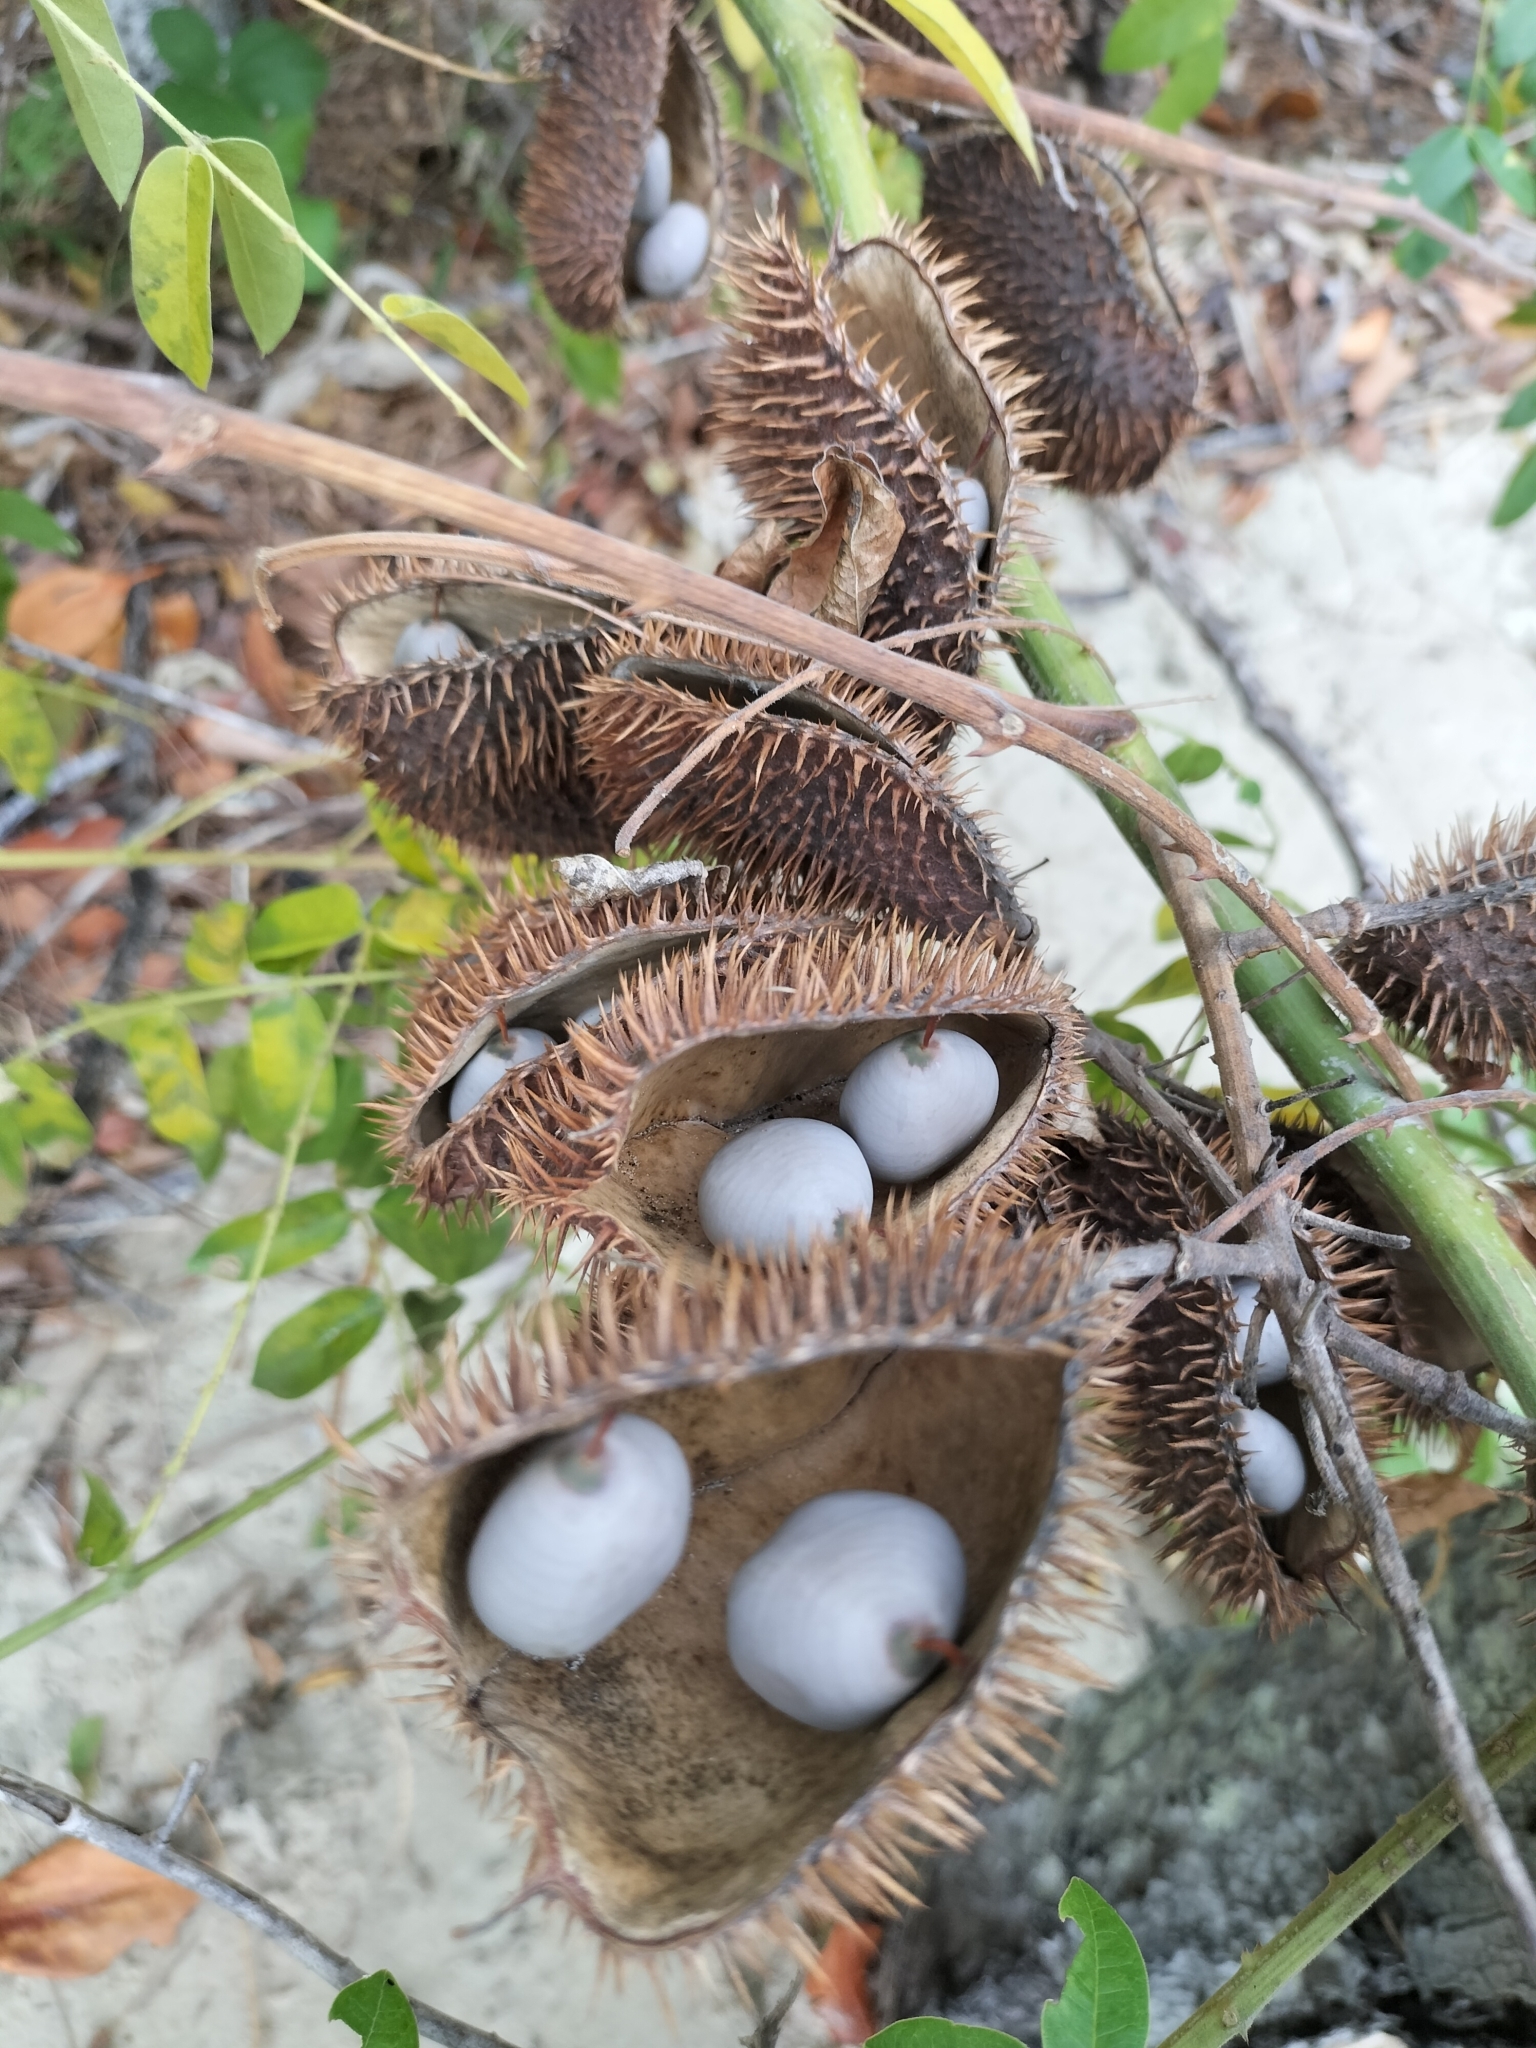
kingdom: Plantae
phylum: Tracheophyta
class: Magnoliopsida
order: Fabales
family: Fabaceae
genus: Guilandina
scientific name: Guilandina bonduc
